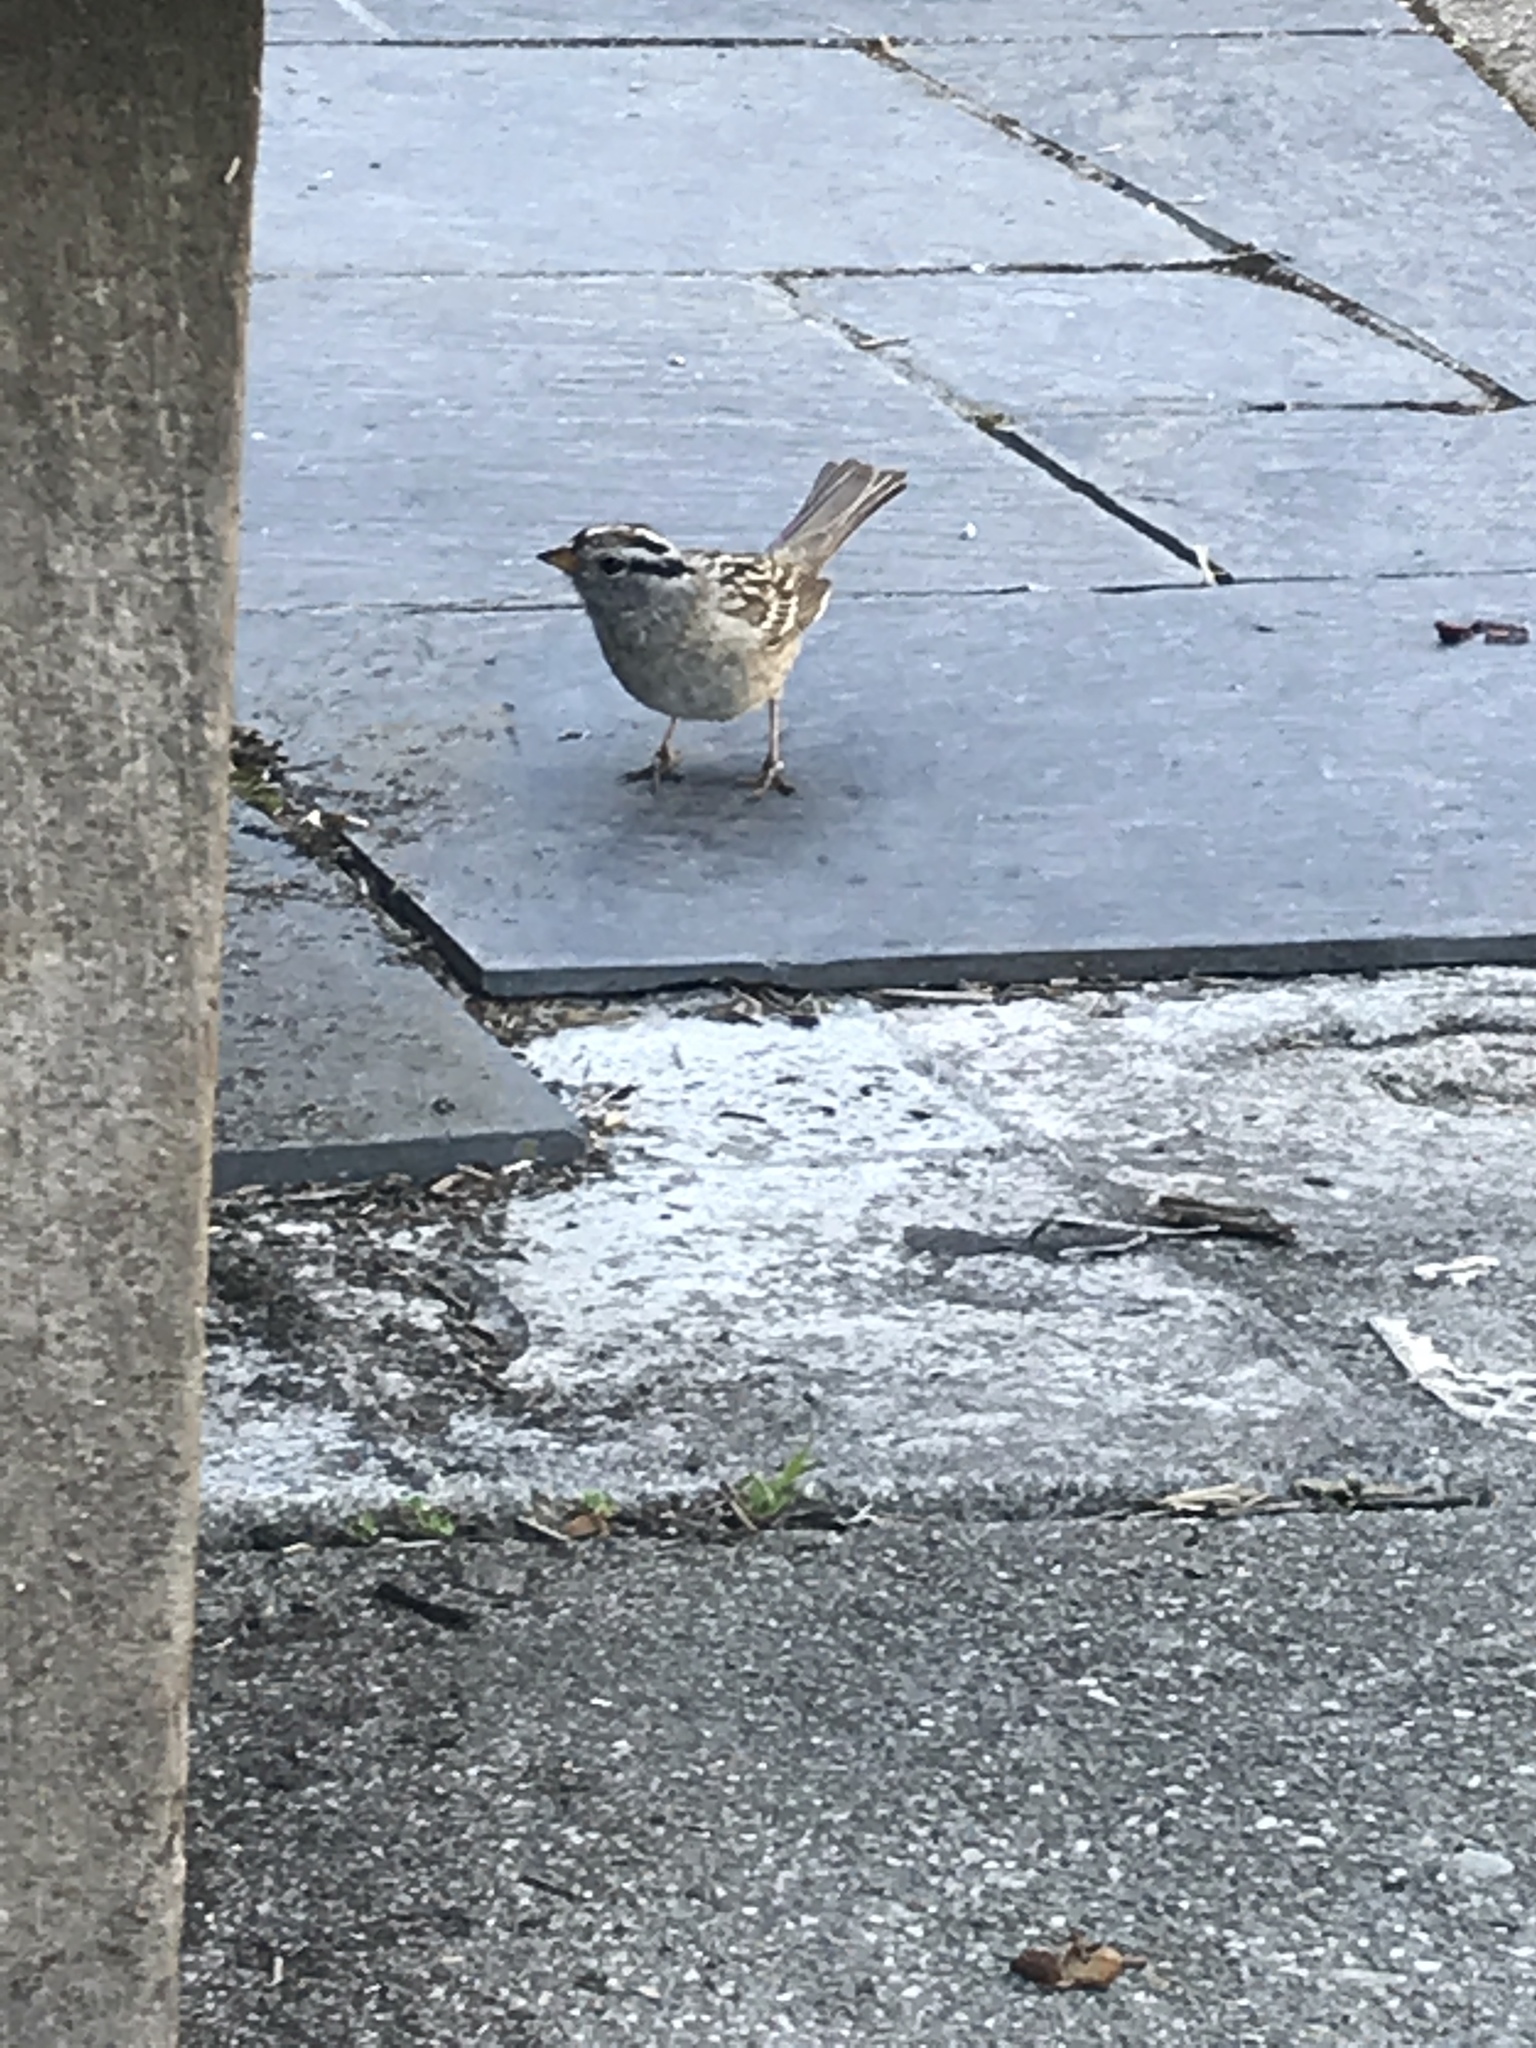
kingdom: Animalia
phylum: Chordata
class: Aves
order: Passeriformes
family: Passerellidae
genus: Zonotrichia
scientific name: Zonotrichia leucophrys
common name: White-crowned sparrow
